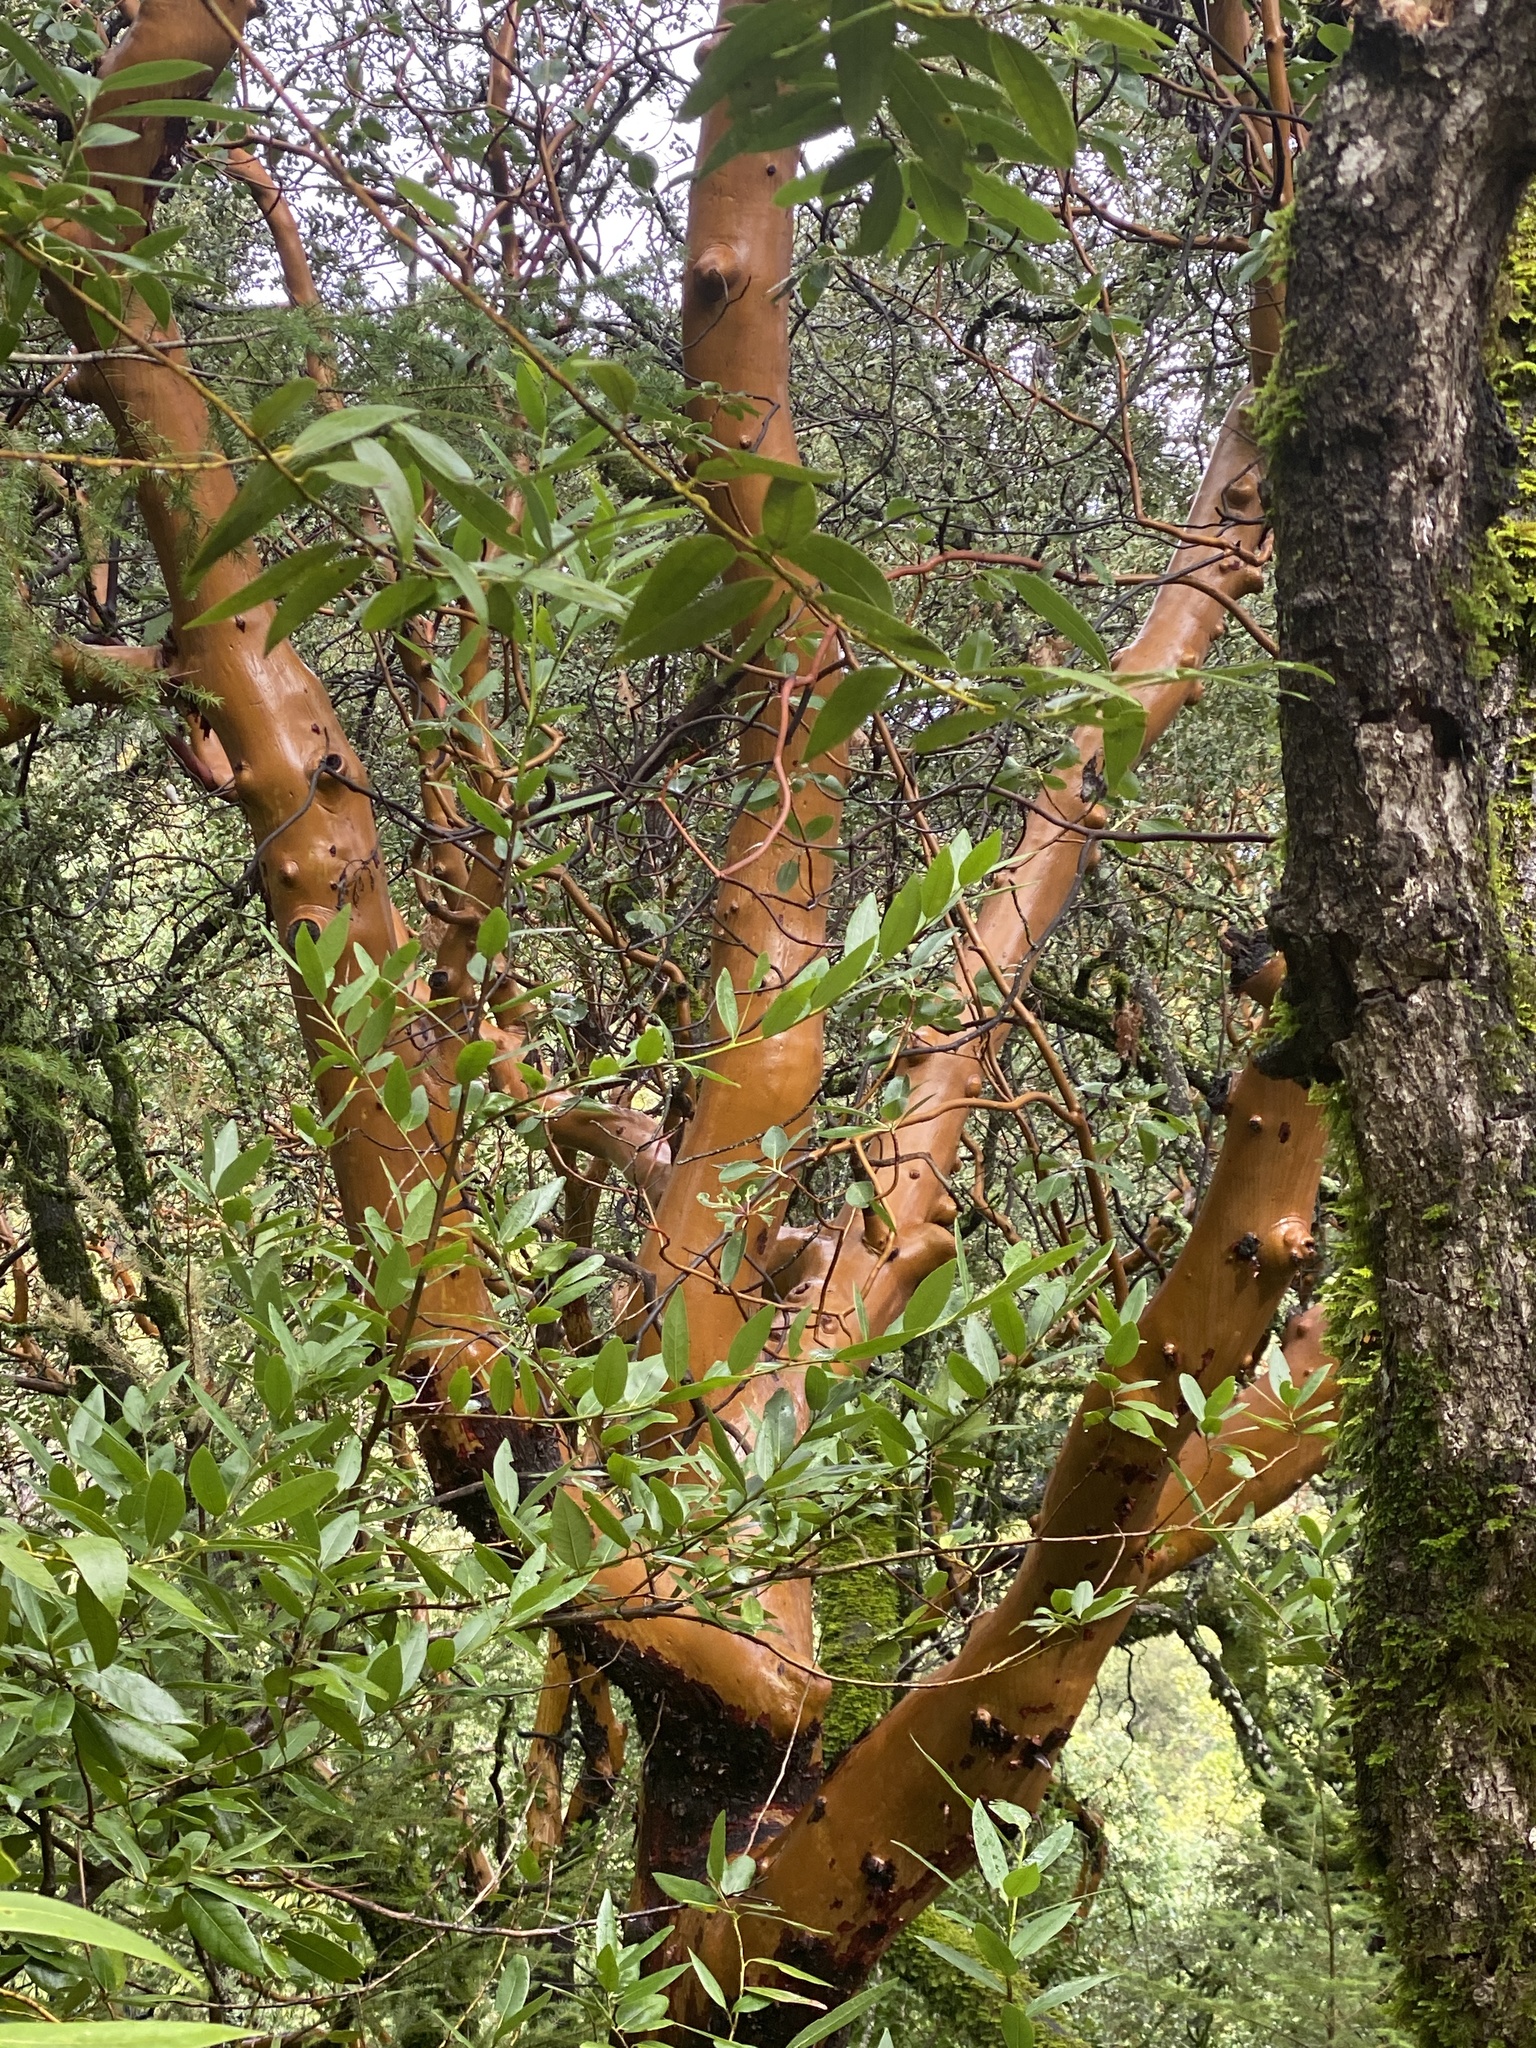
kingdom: Plantae
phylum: Tracheophyta
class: Magnoliopsida
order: Ericales
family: Ericaceae
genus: Arbutus
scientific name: Arbutus menziesii
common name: Pacific madrone
